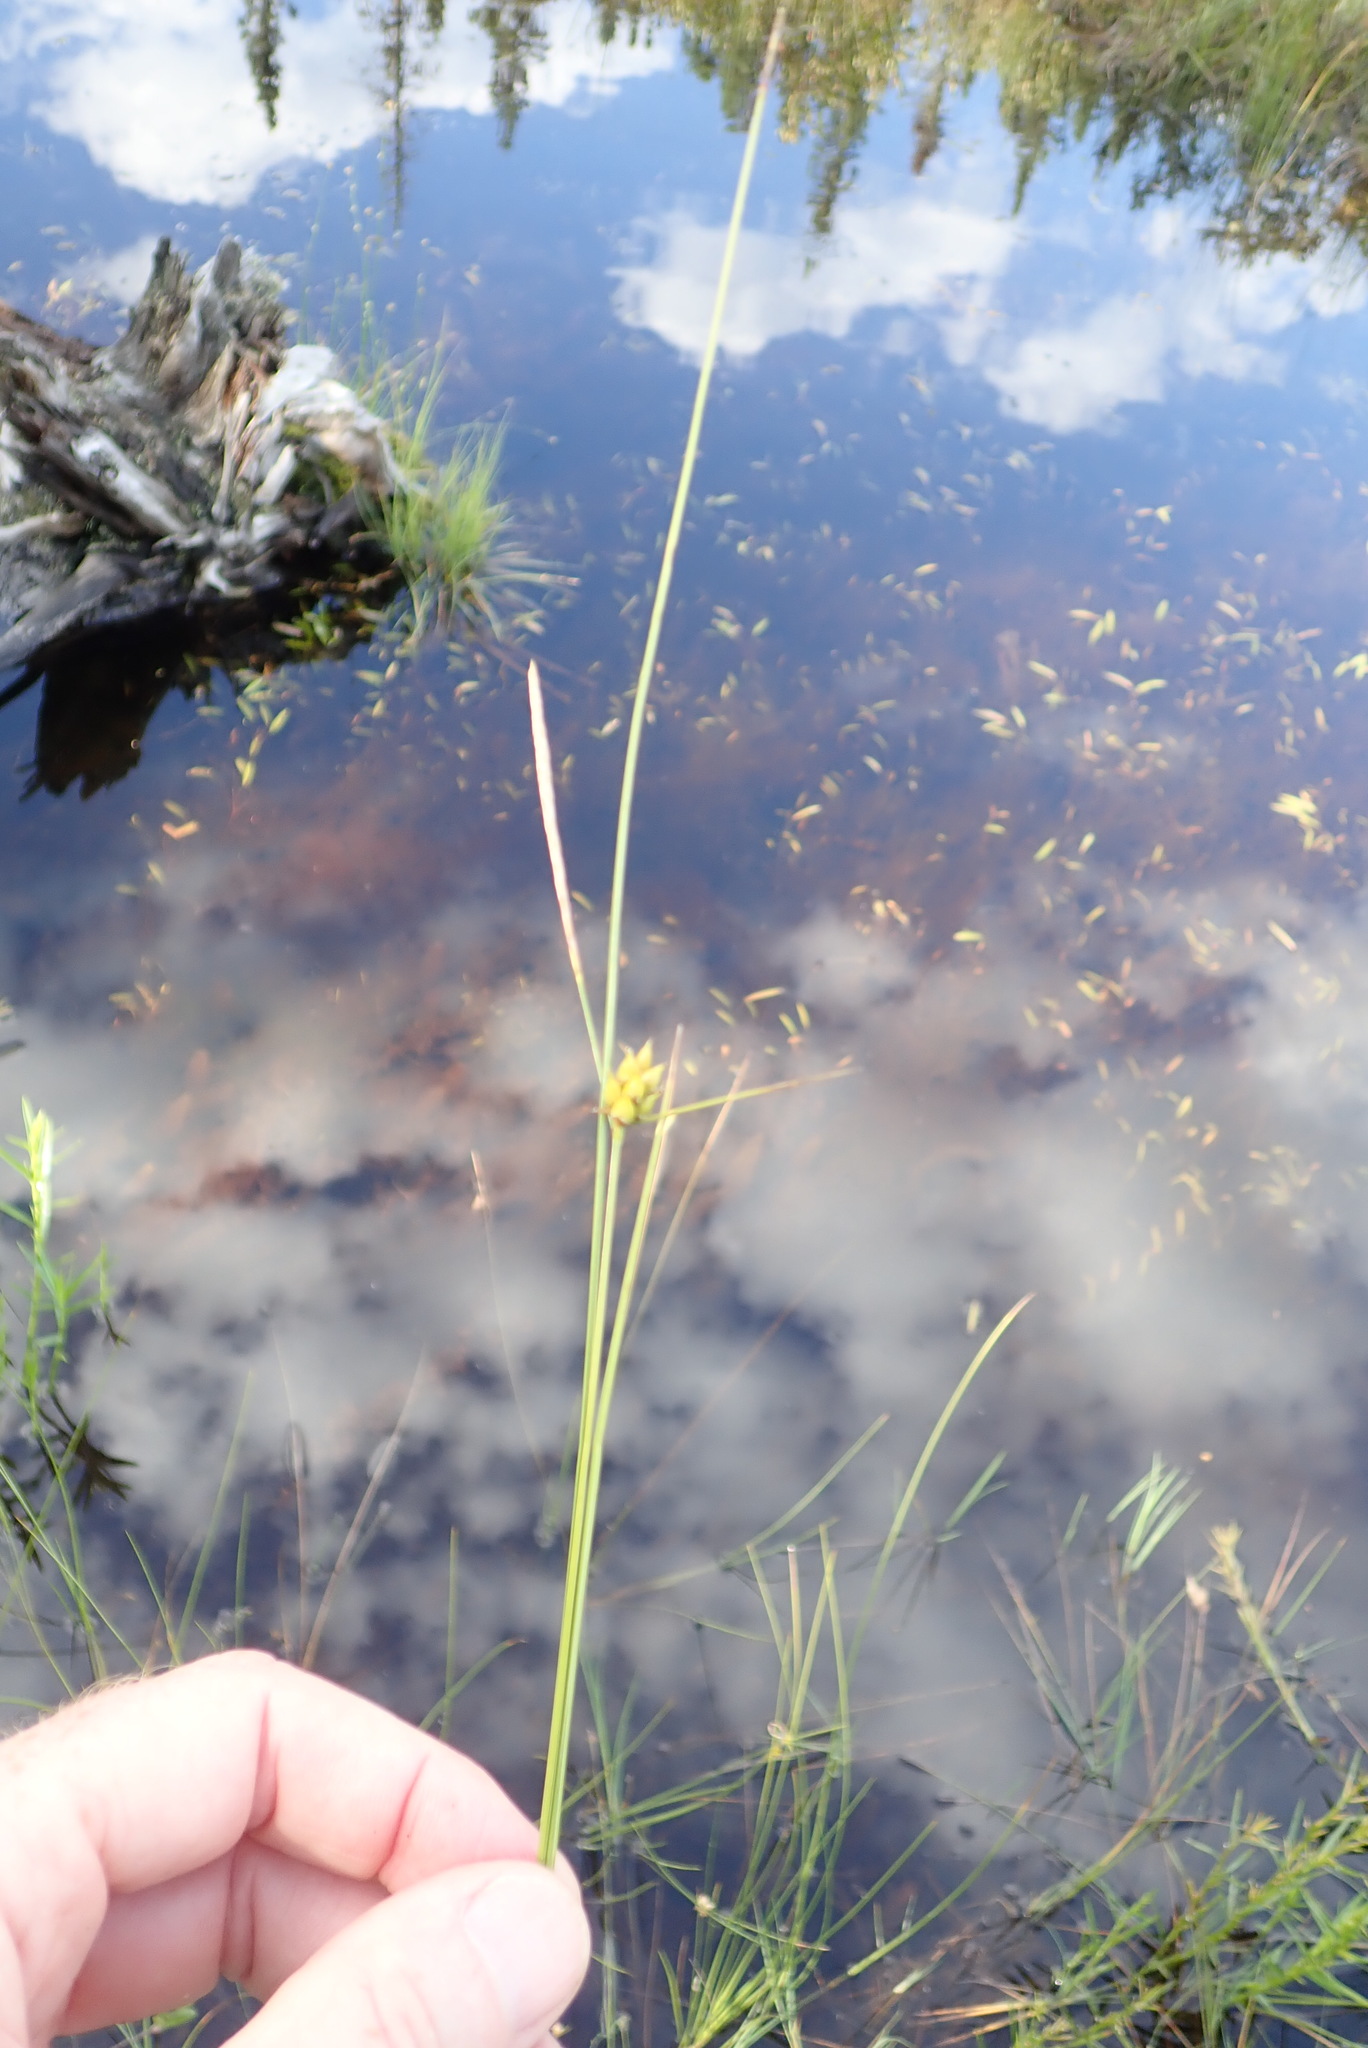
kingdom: Plantae
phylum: Tracheophyta
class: Liliopsida
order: Poales
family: Cyperaceae
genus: Carex
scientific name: Carex oligosperma
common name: Few-seed sedge
